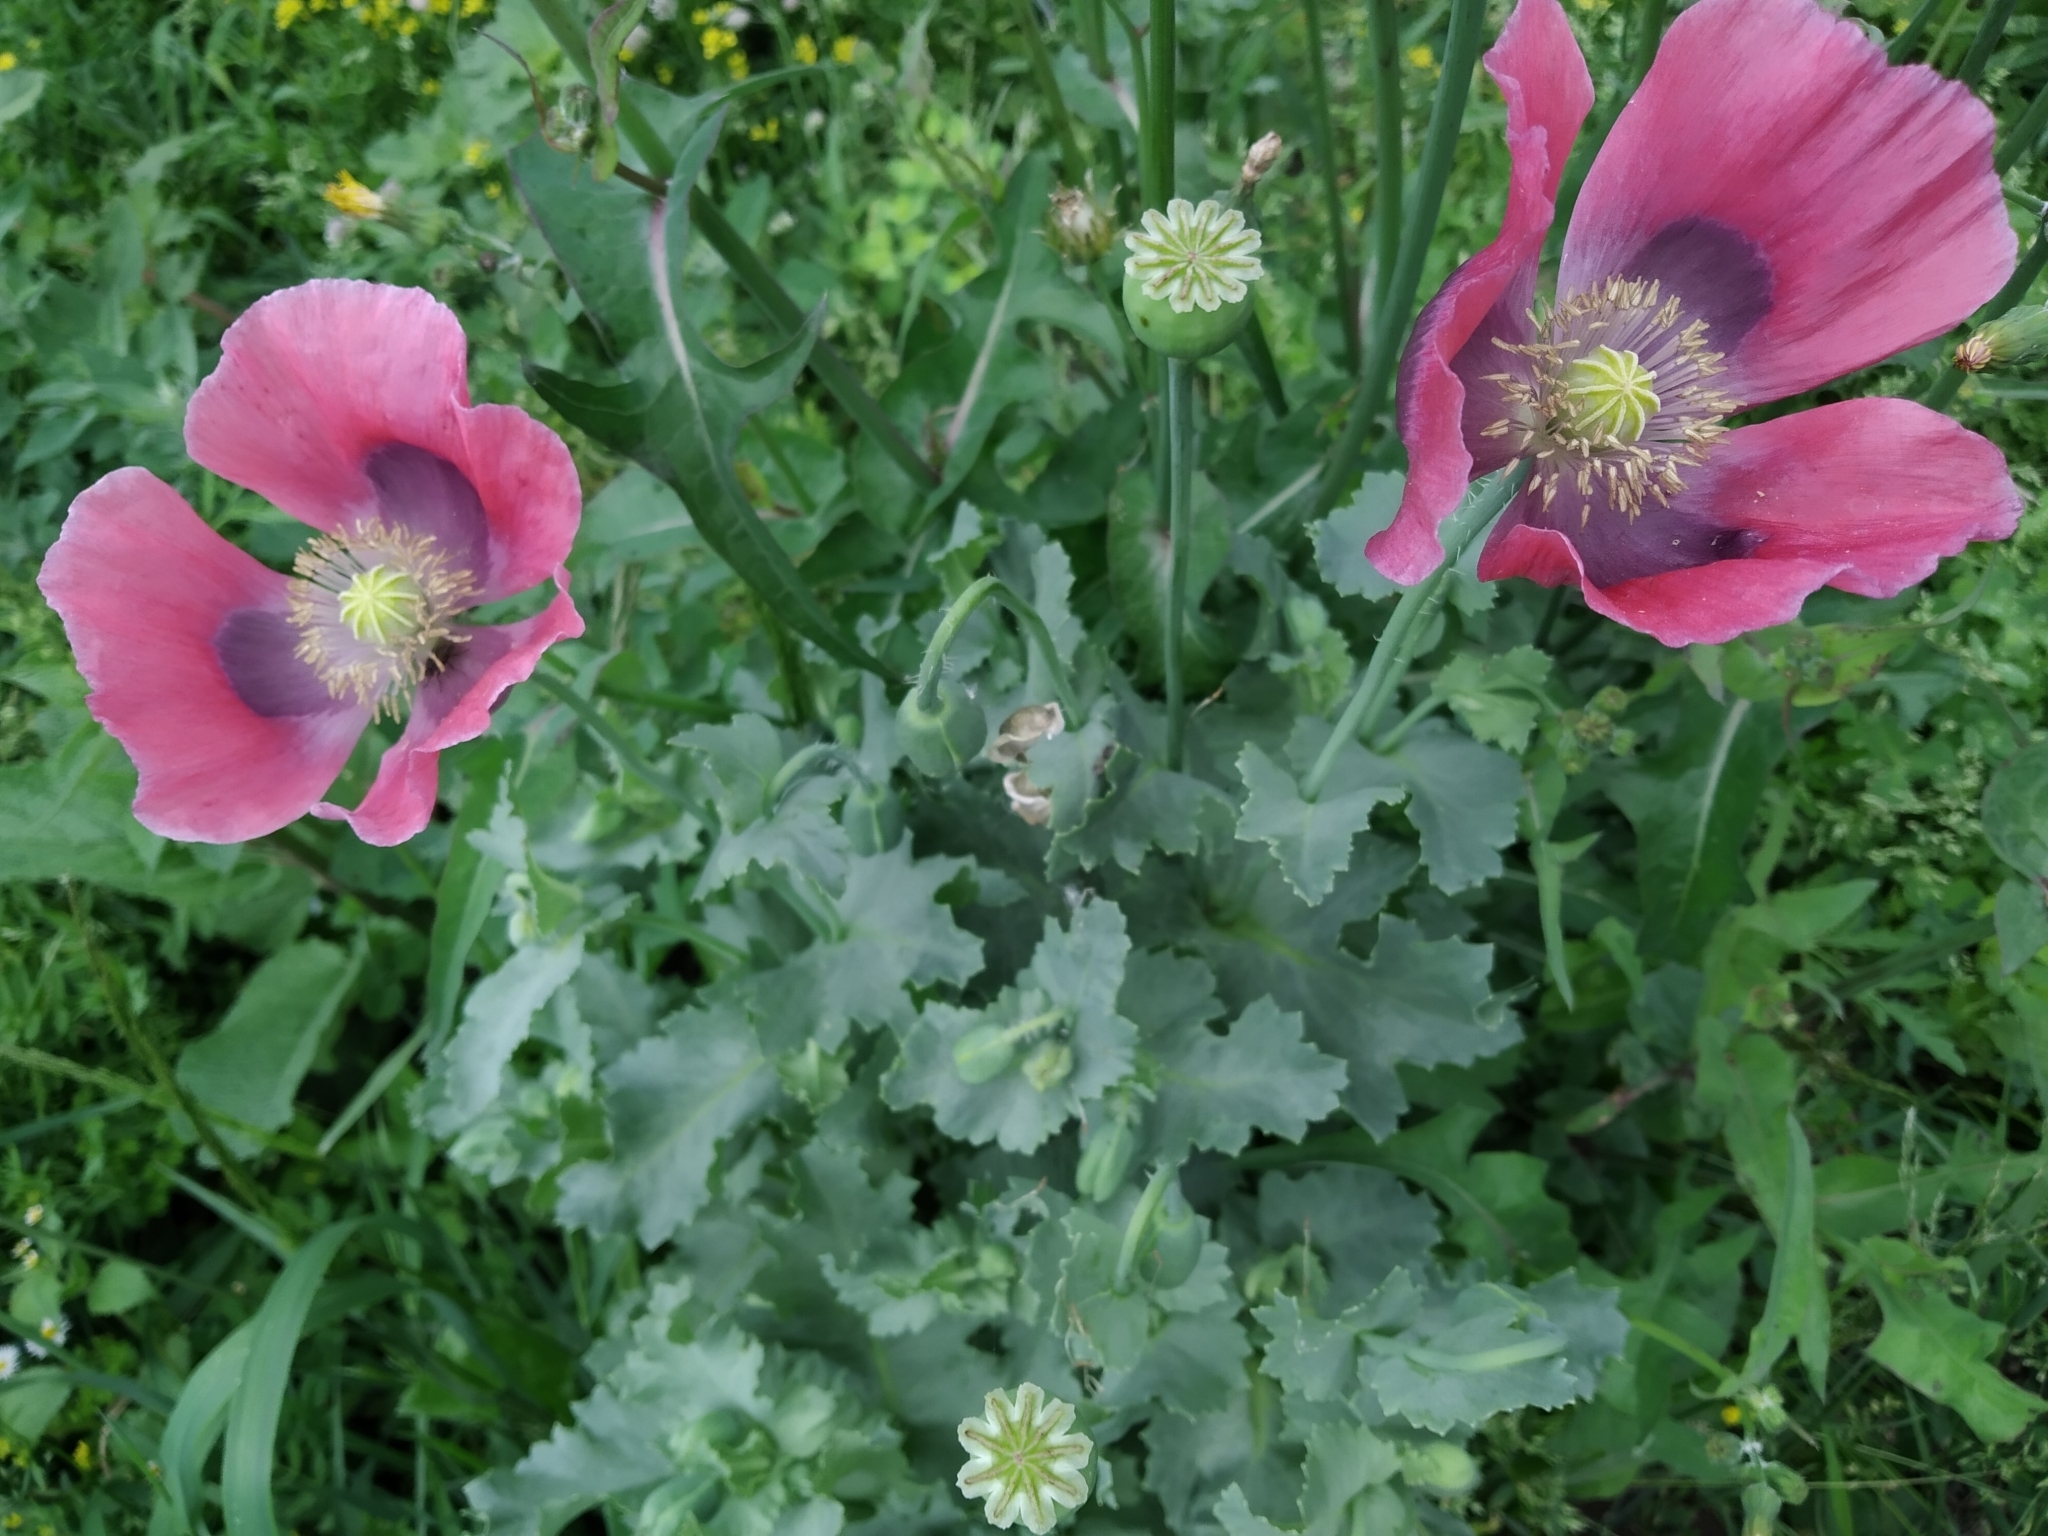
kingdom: Plantae
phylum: Tracheophyta
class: Magnoliopsida
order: Ranunculales
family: Papaveraceae
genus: Papaver
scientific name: Papaver somniferum
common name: Opium poppy
